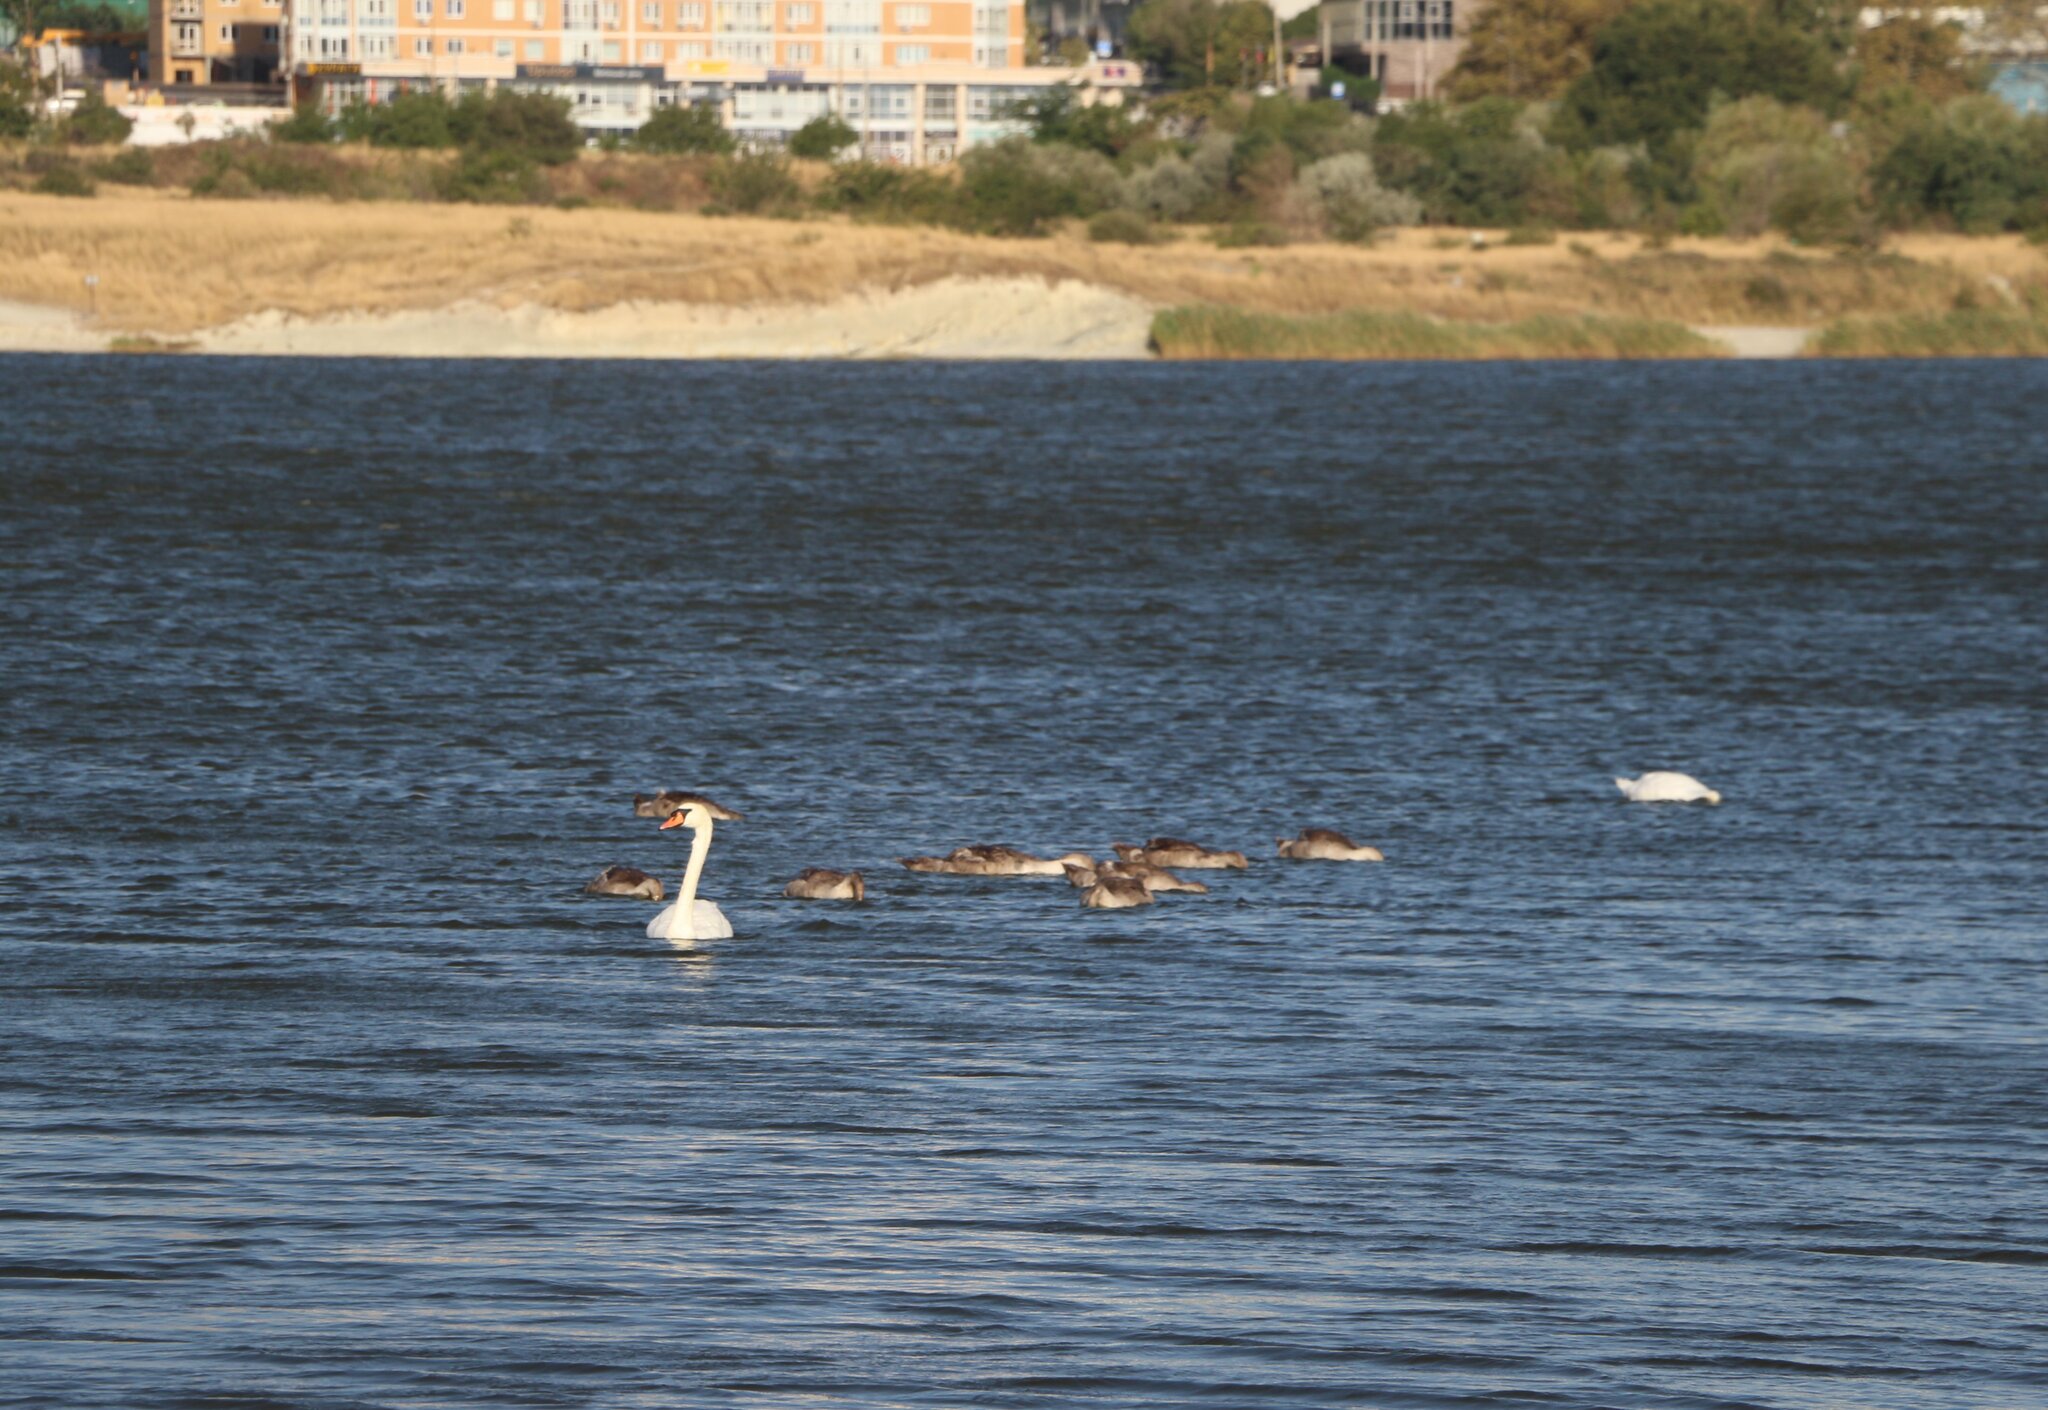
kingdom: Animalia
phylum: Chordata
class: Aves
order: Anseriformes
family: Anatidae
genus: Cygnus
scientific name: Cygnus olor
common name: Mute swan
